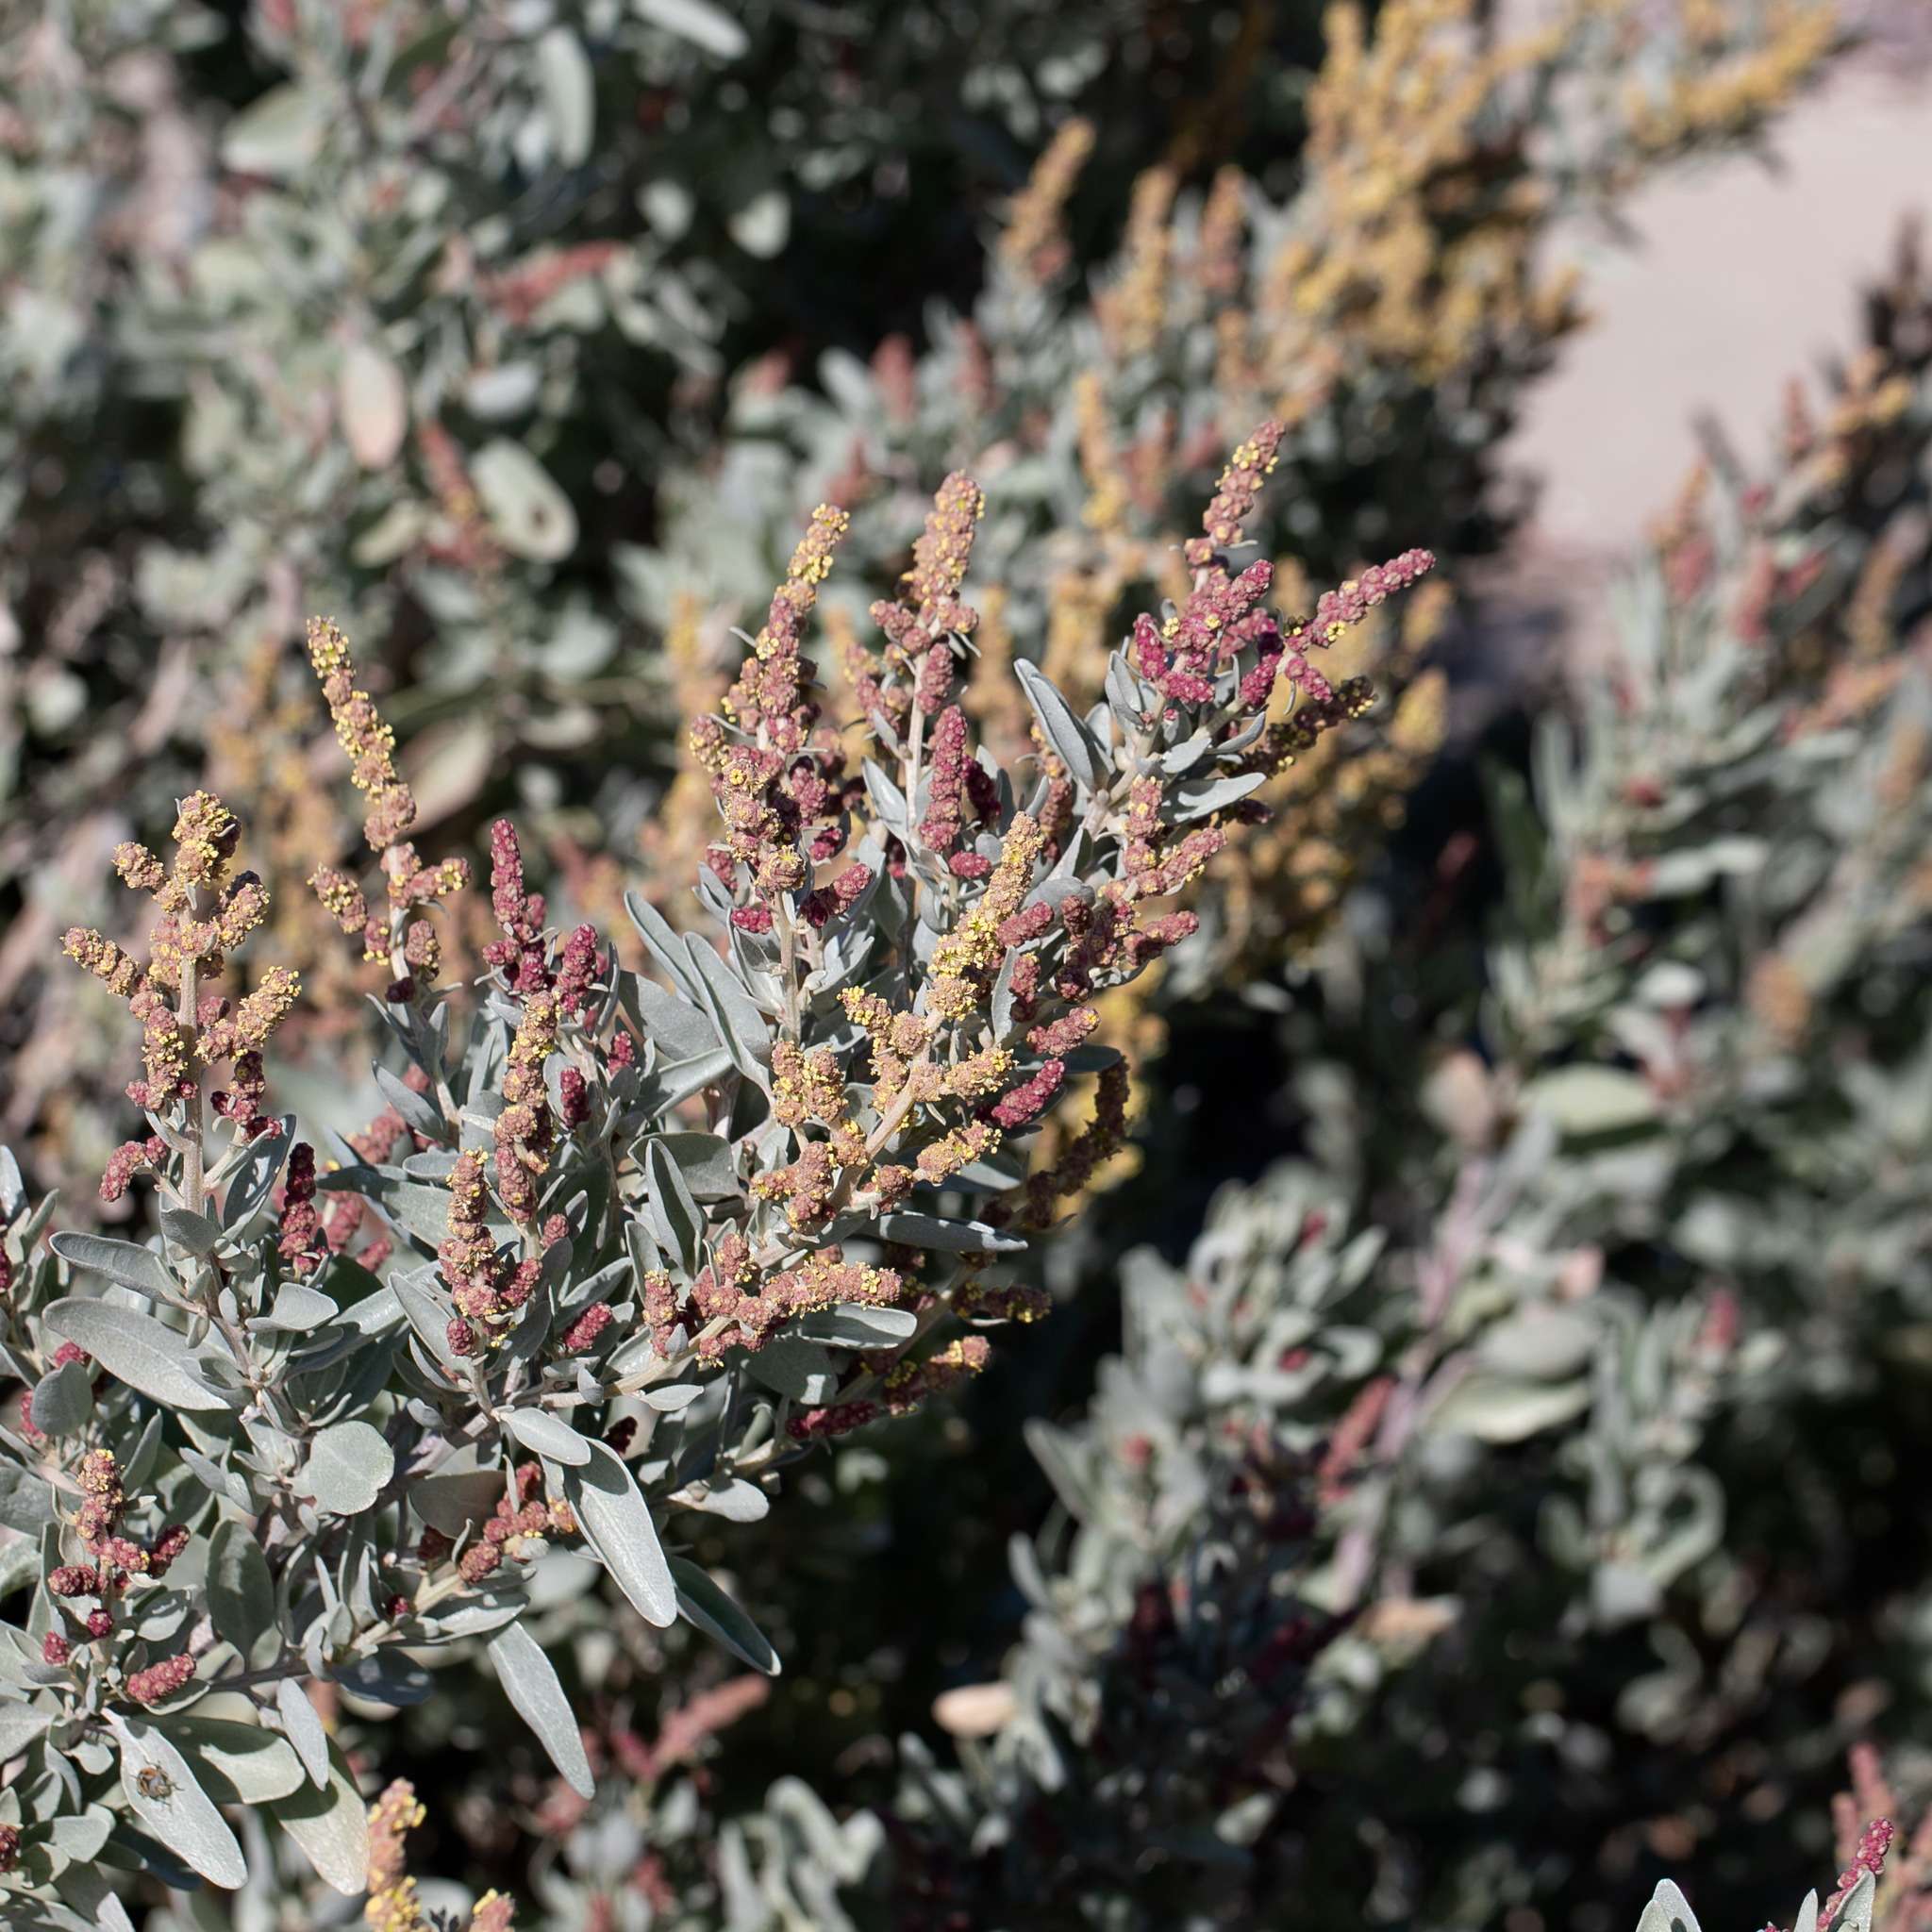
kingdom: Plantae
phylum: Tracheophyta
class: Magnoliopsida
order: Caryophyllales
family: Amaranthaceae
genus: Atriplex
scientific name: Atriplex cinerea
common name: Grey saltbush
